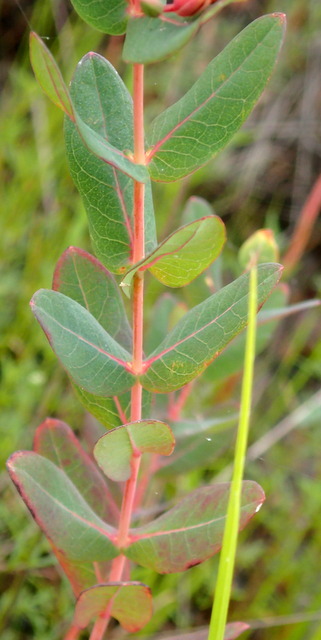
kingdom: Plantae
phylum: Tracheophyta
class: Magnoliopsida
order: Malpighiales
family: Hypericaceae
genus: Triadenum
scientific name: Triadenum virginicum
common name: Marsh st. john's-wort
